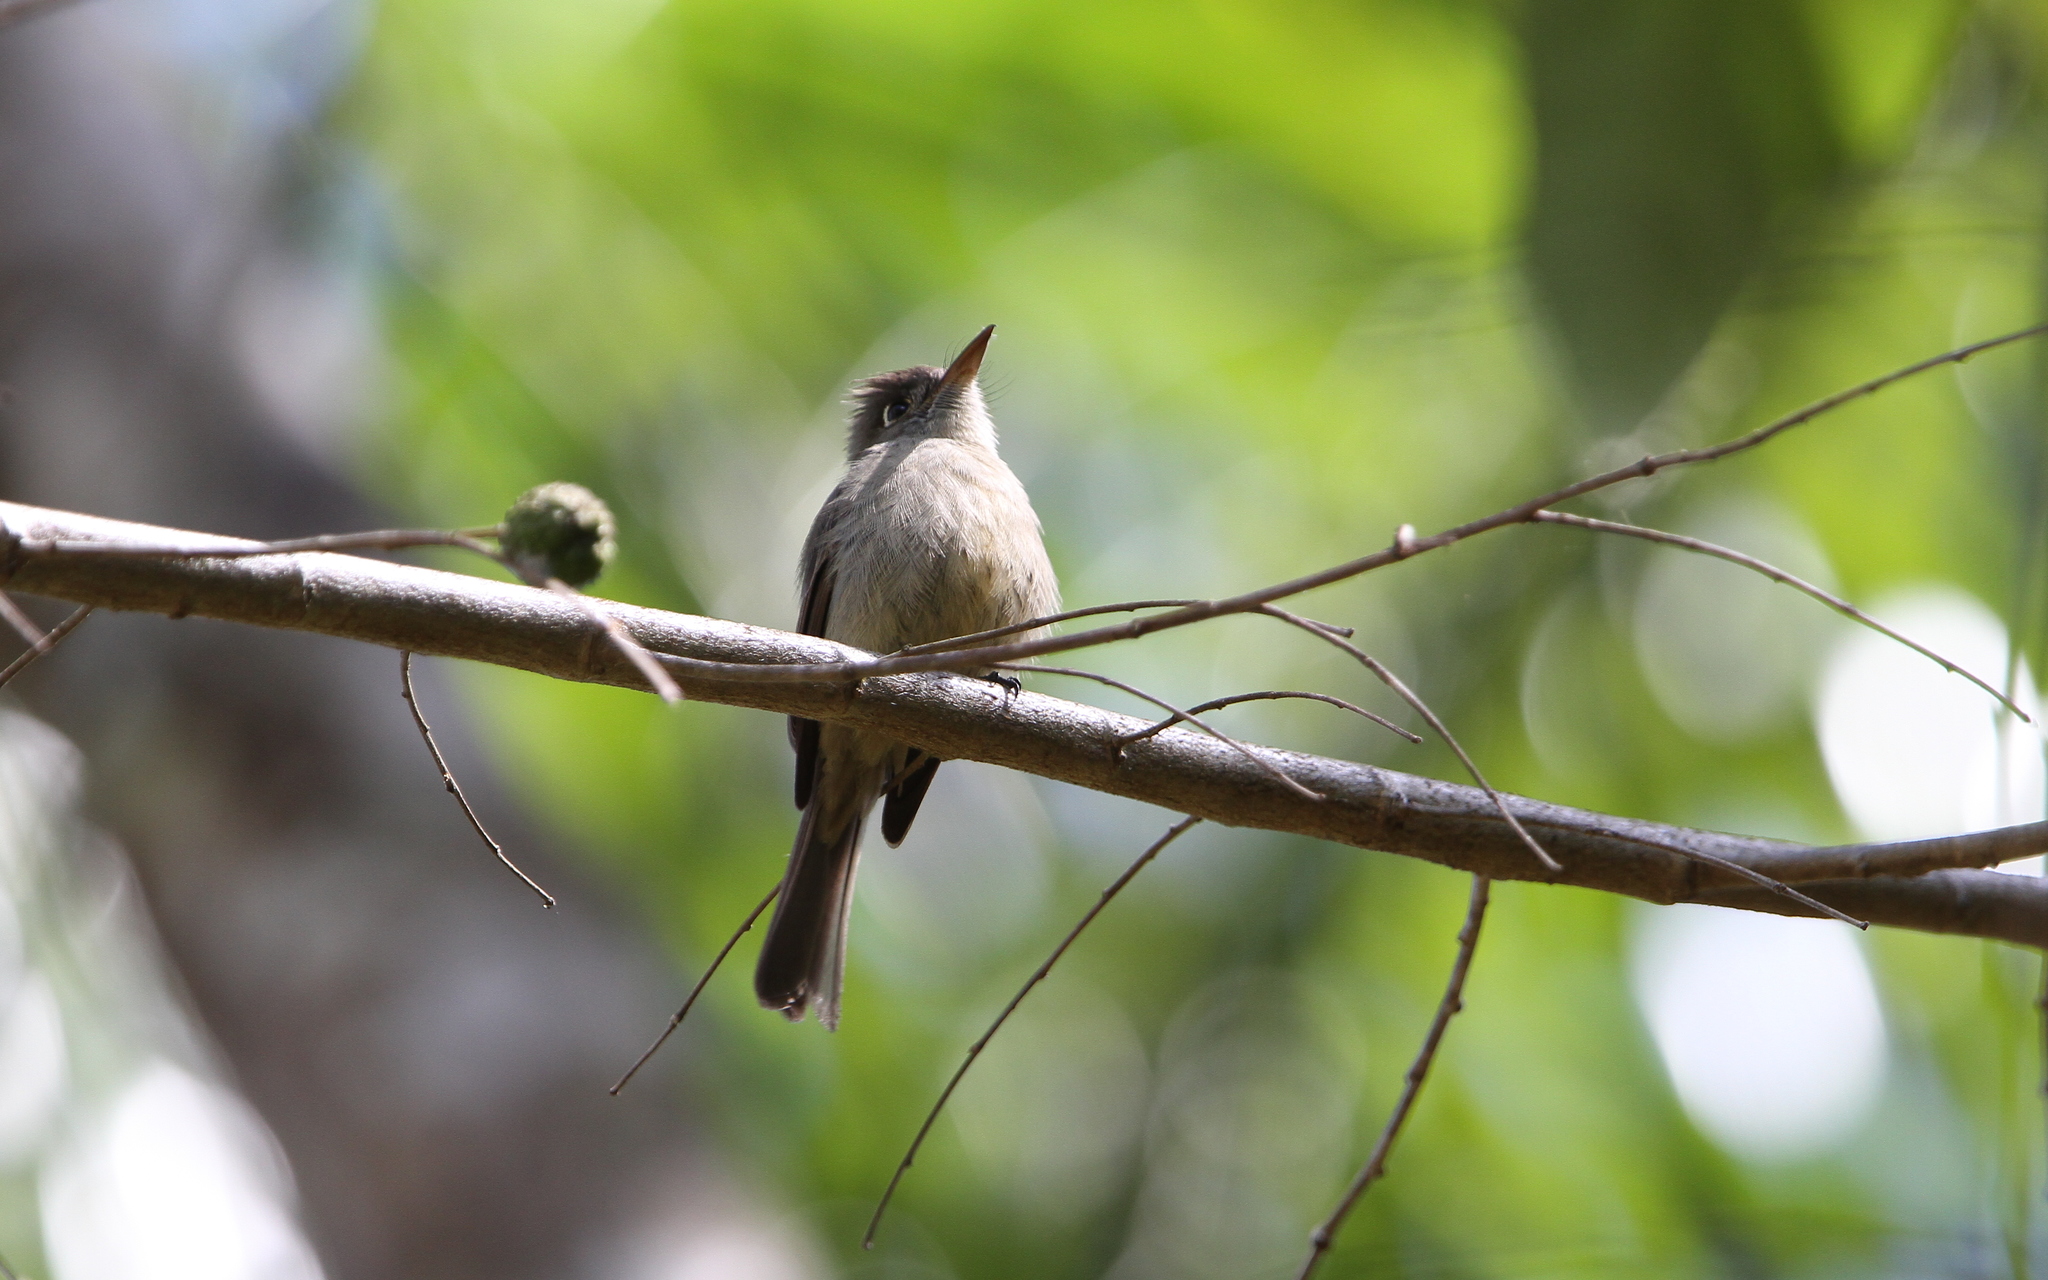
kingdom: Animalia
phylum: Chordata
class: Aves
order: Passeriformes
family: Tyrannidae
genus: Contopus
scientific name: Contopus caribaeus
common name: Cuban pewee
